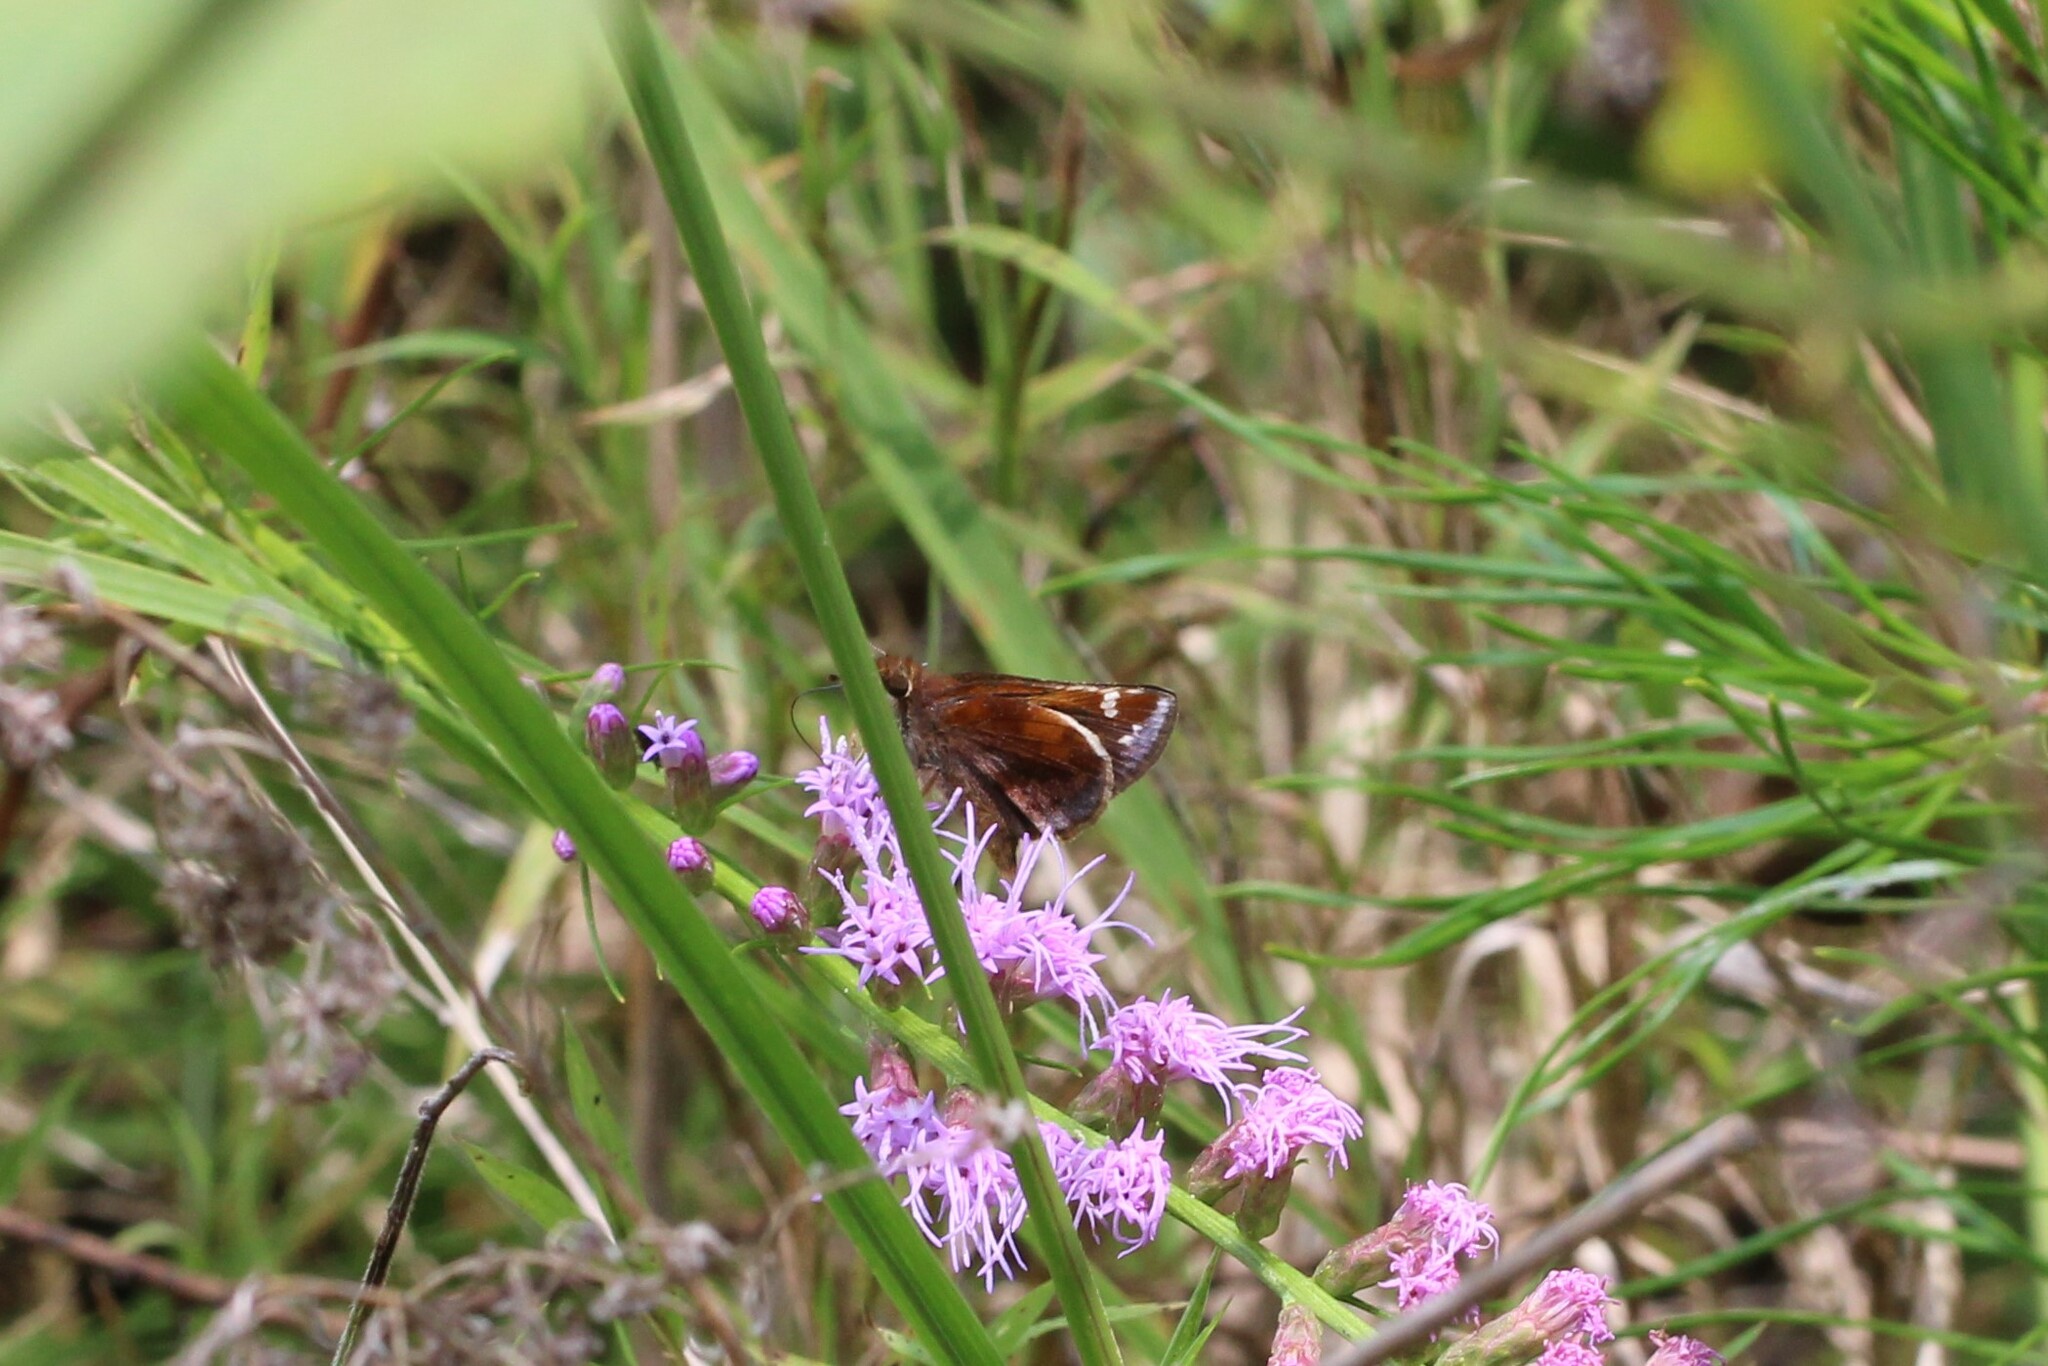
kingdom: Animalia
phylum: Arthropoda
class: Insecta
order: Lepidoptera
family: Hesperiidae
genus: Lon
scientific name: Lon zabulon
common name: Zabulon skipper
